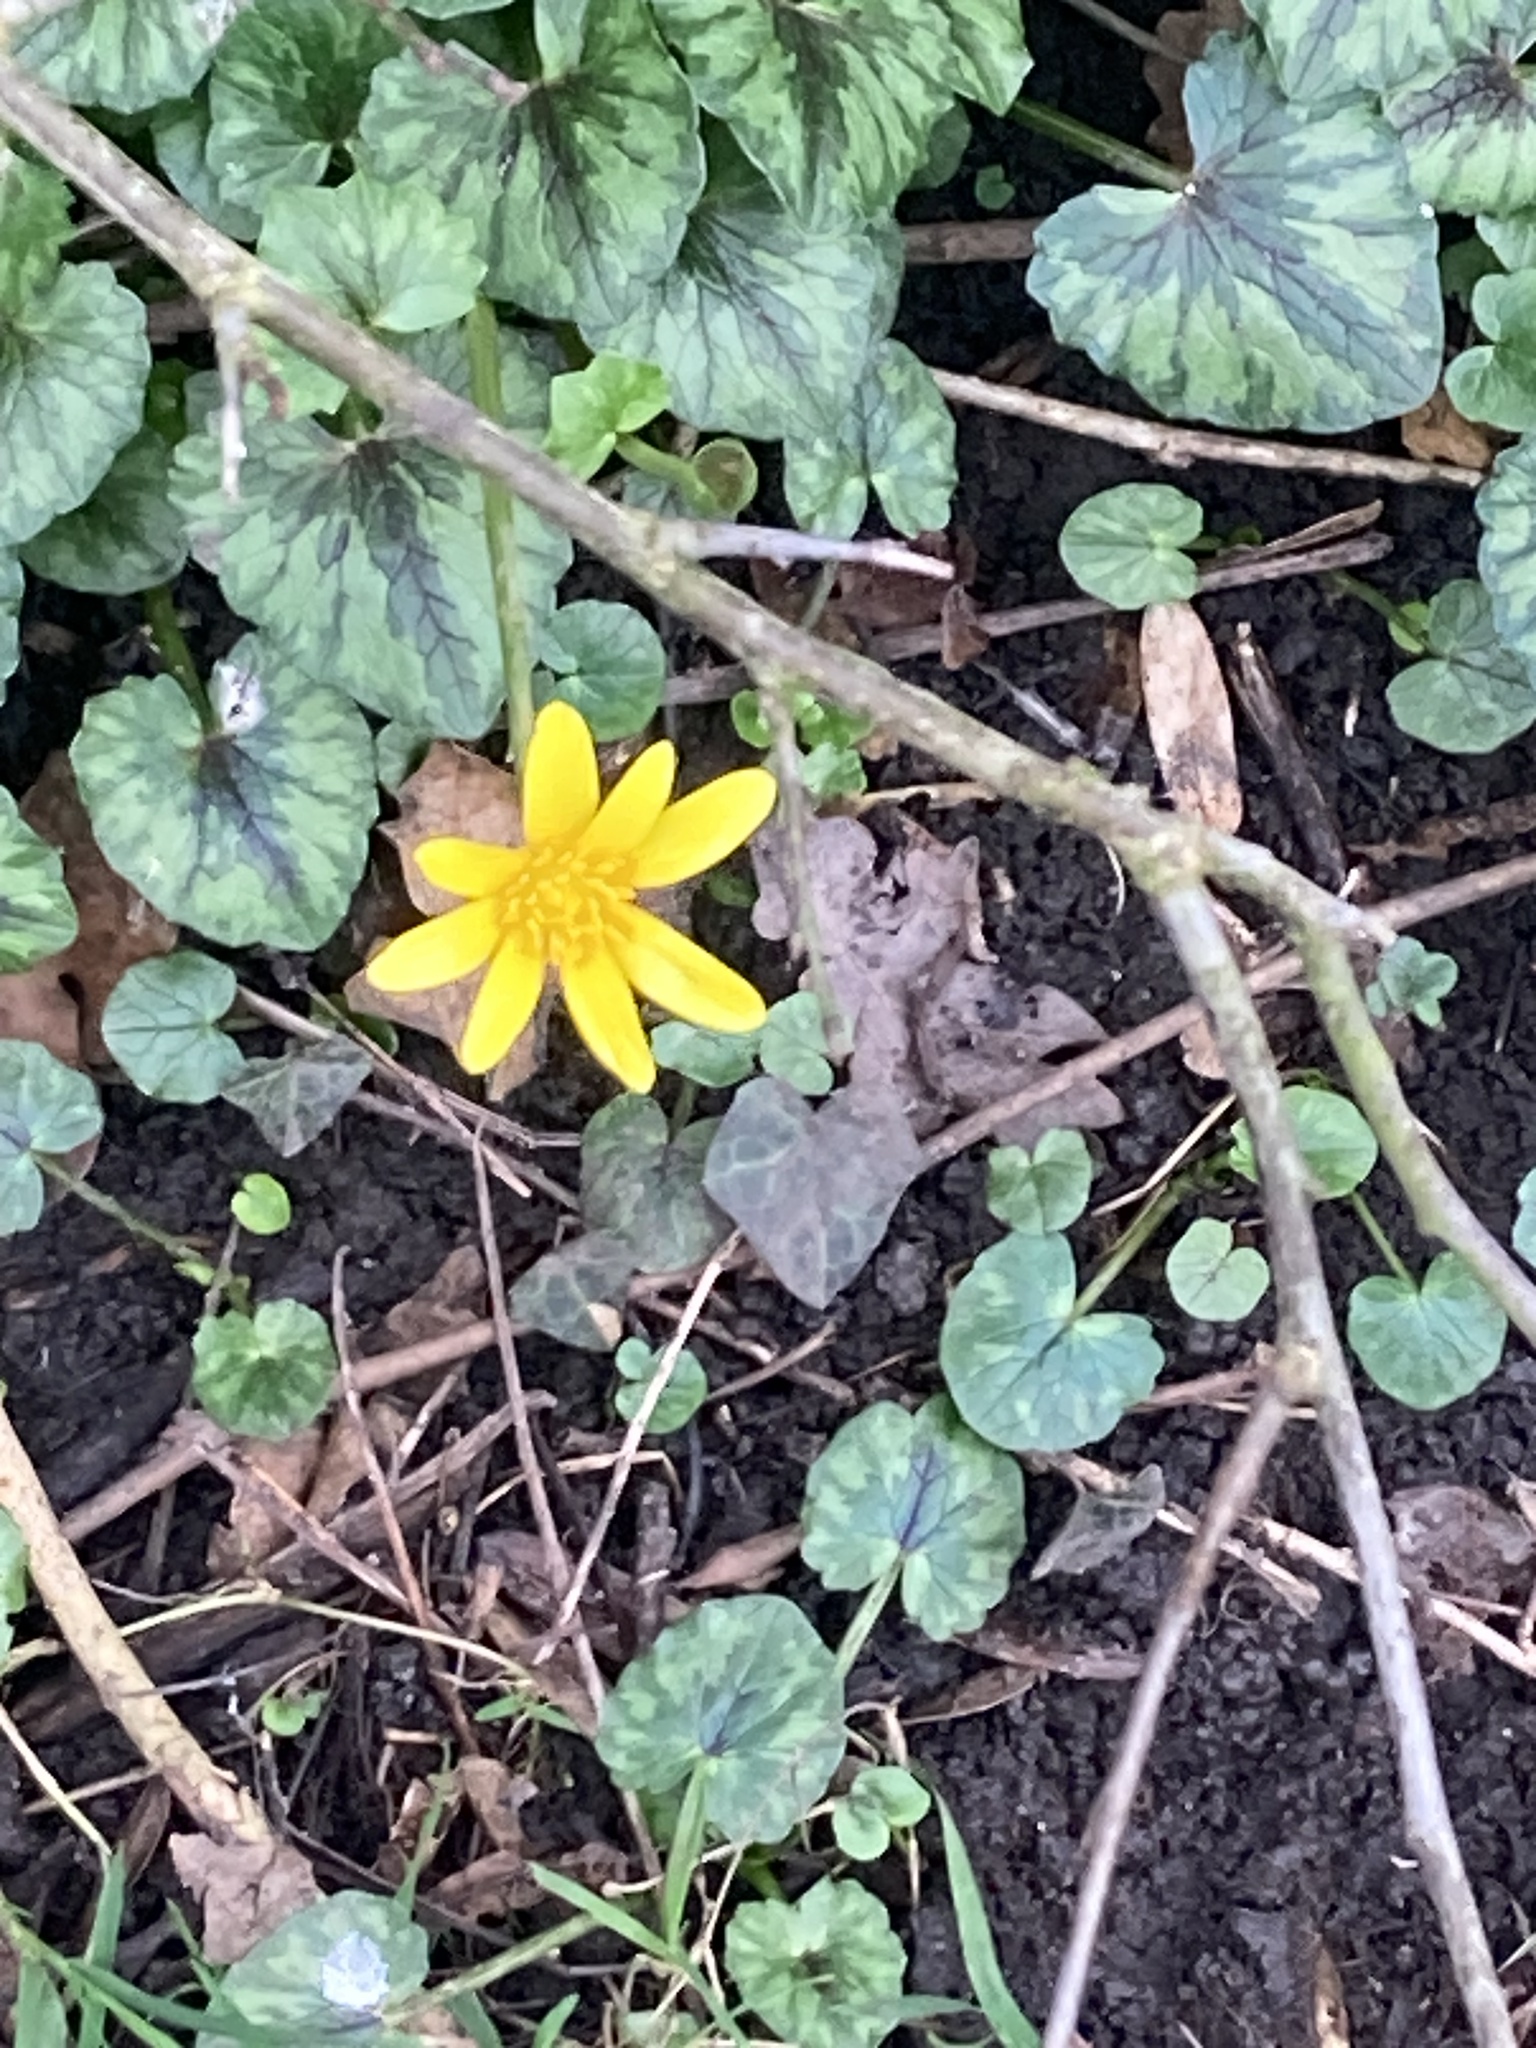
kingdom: Plantae
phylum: Tracheophyta
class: Magnoliopsida
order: Ranunculales
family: Ranunculaceae
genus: Ficaria
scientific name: Ficaria verna
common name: Lesser celandine
